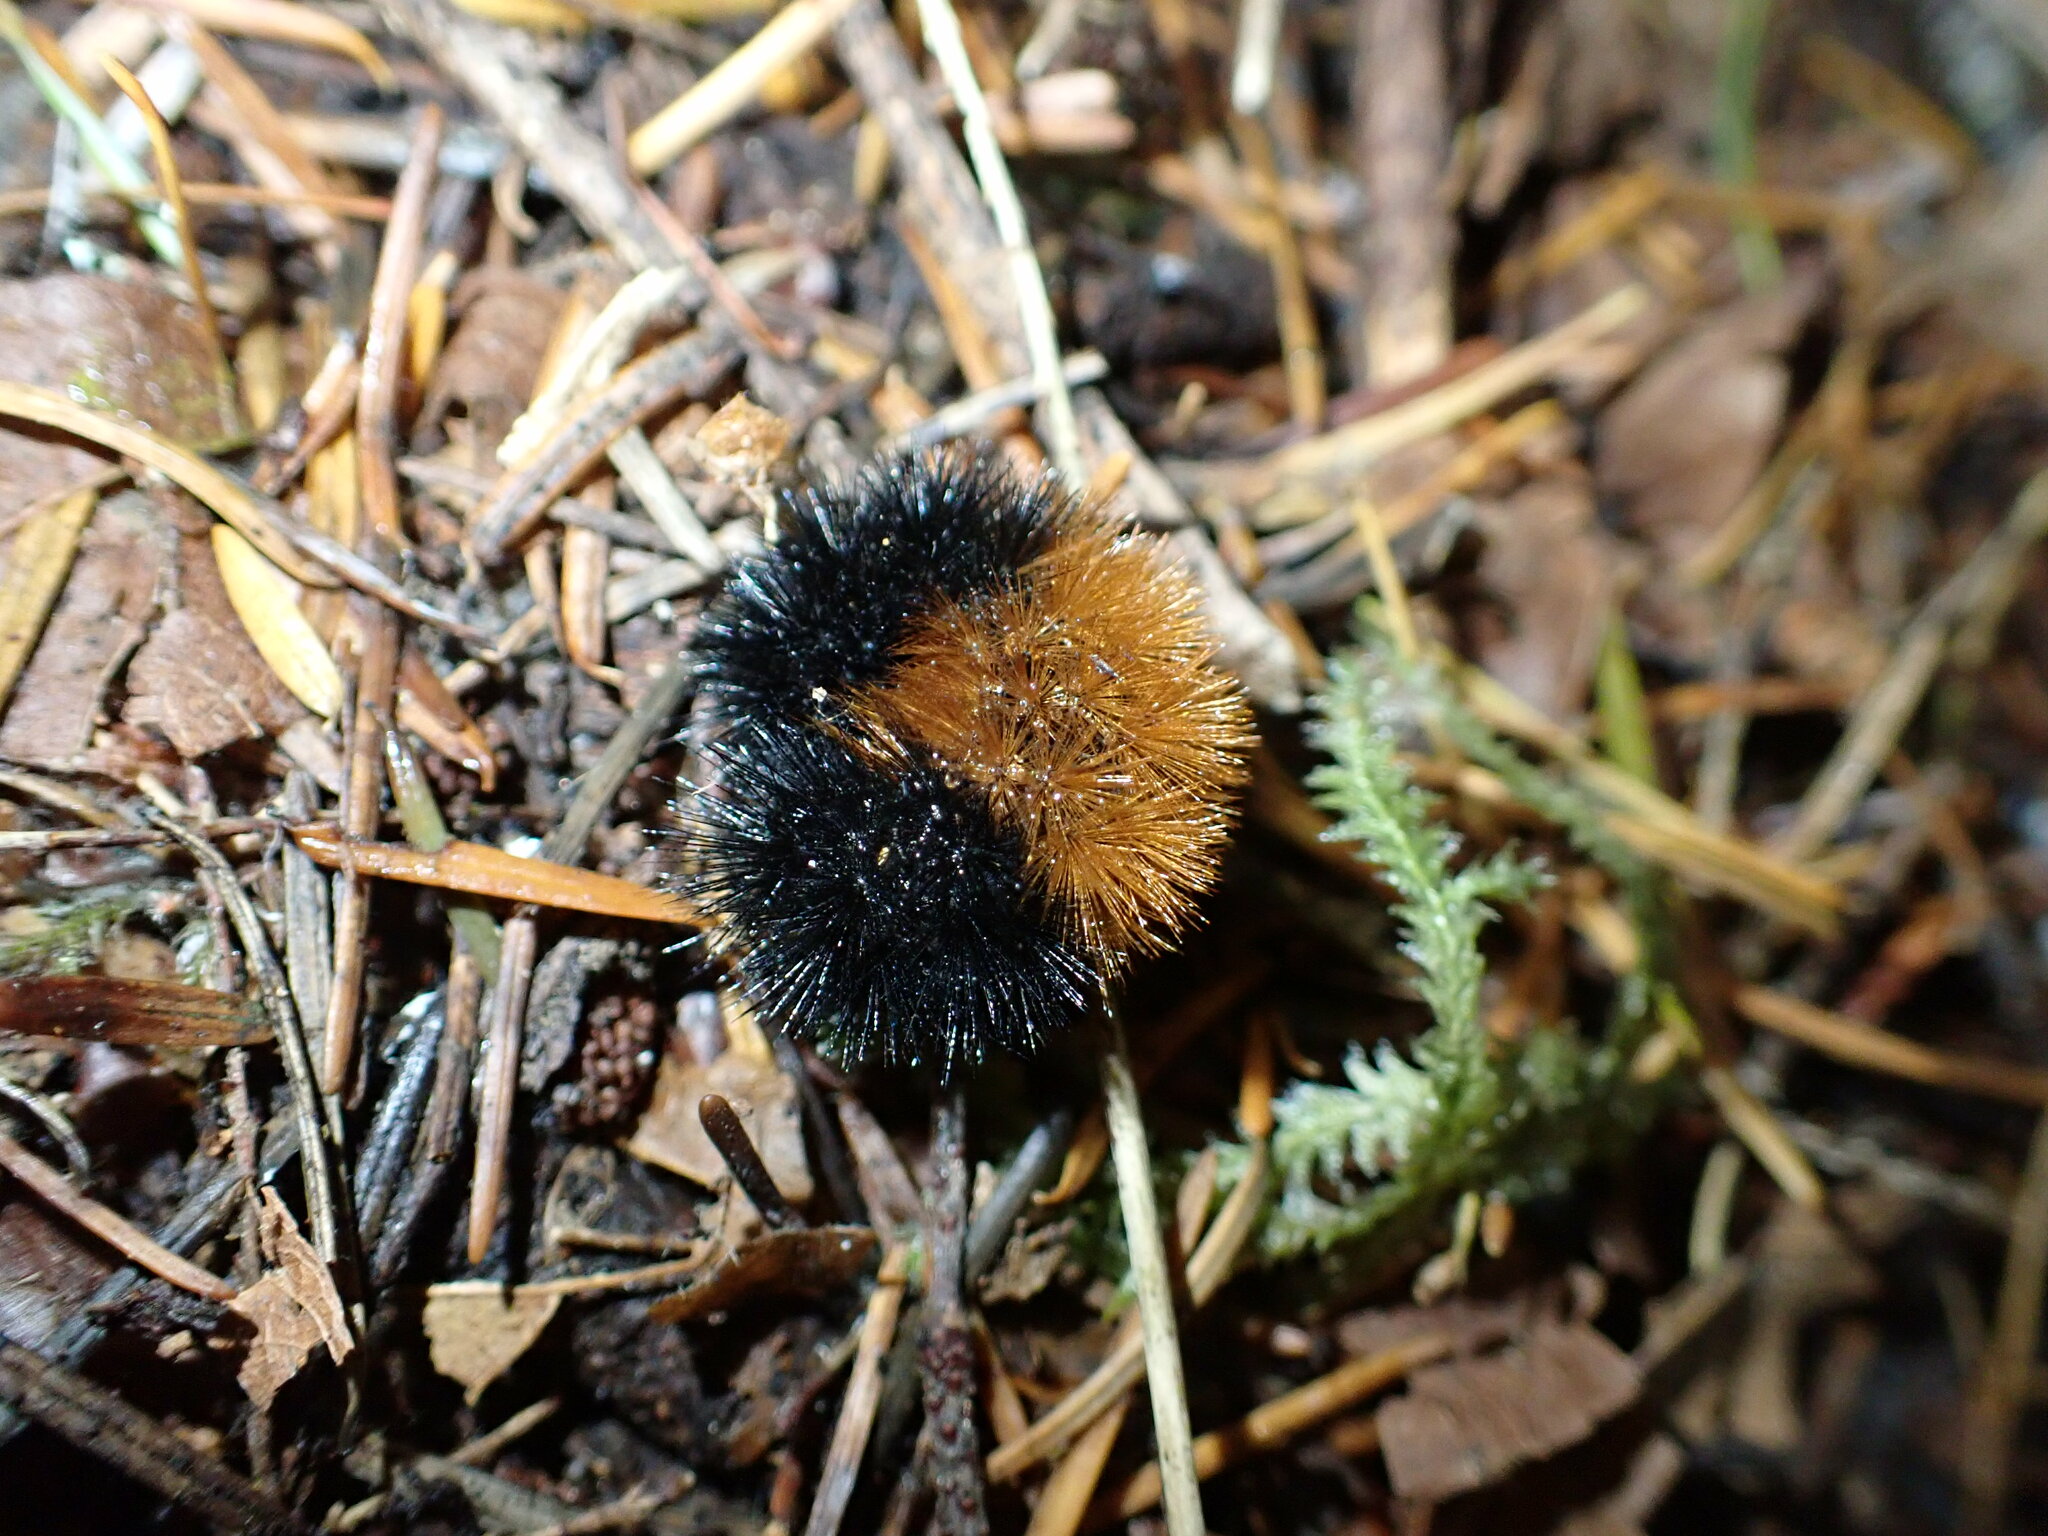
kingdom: Animalia
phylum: Arthropoda
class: Insecta
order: Lepidoptera
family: Erebidae
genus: Pyrrharctia
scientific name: Pyrrharctia isabella
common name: Isabella tiger moth
